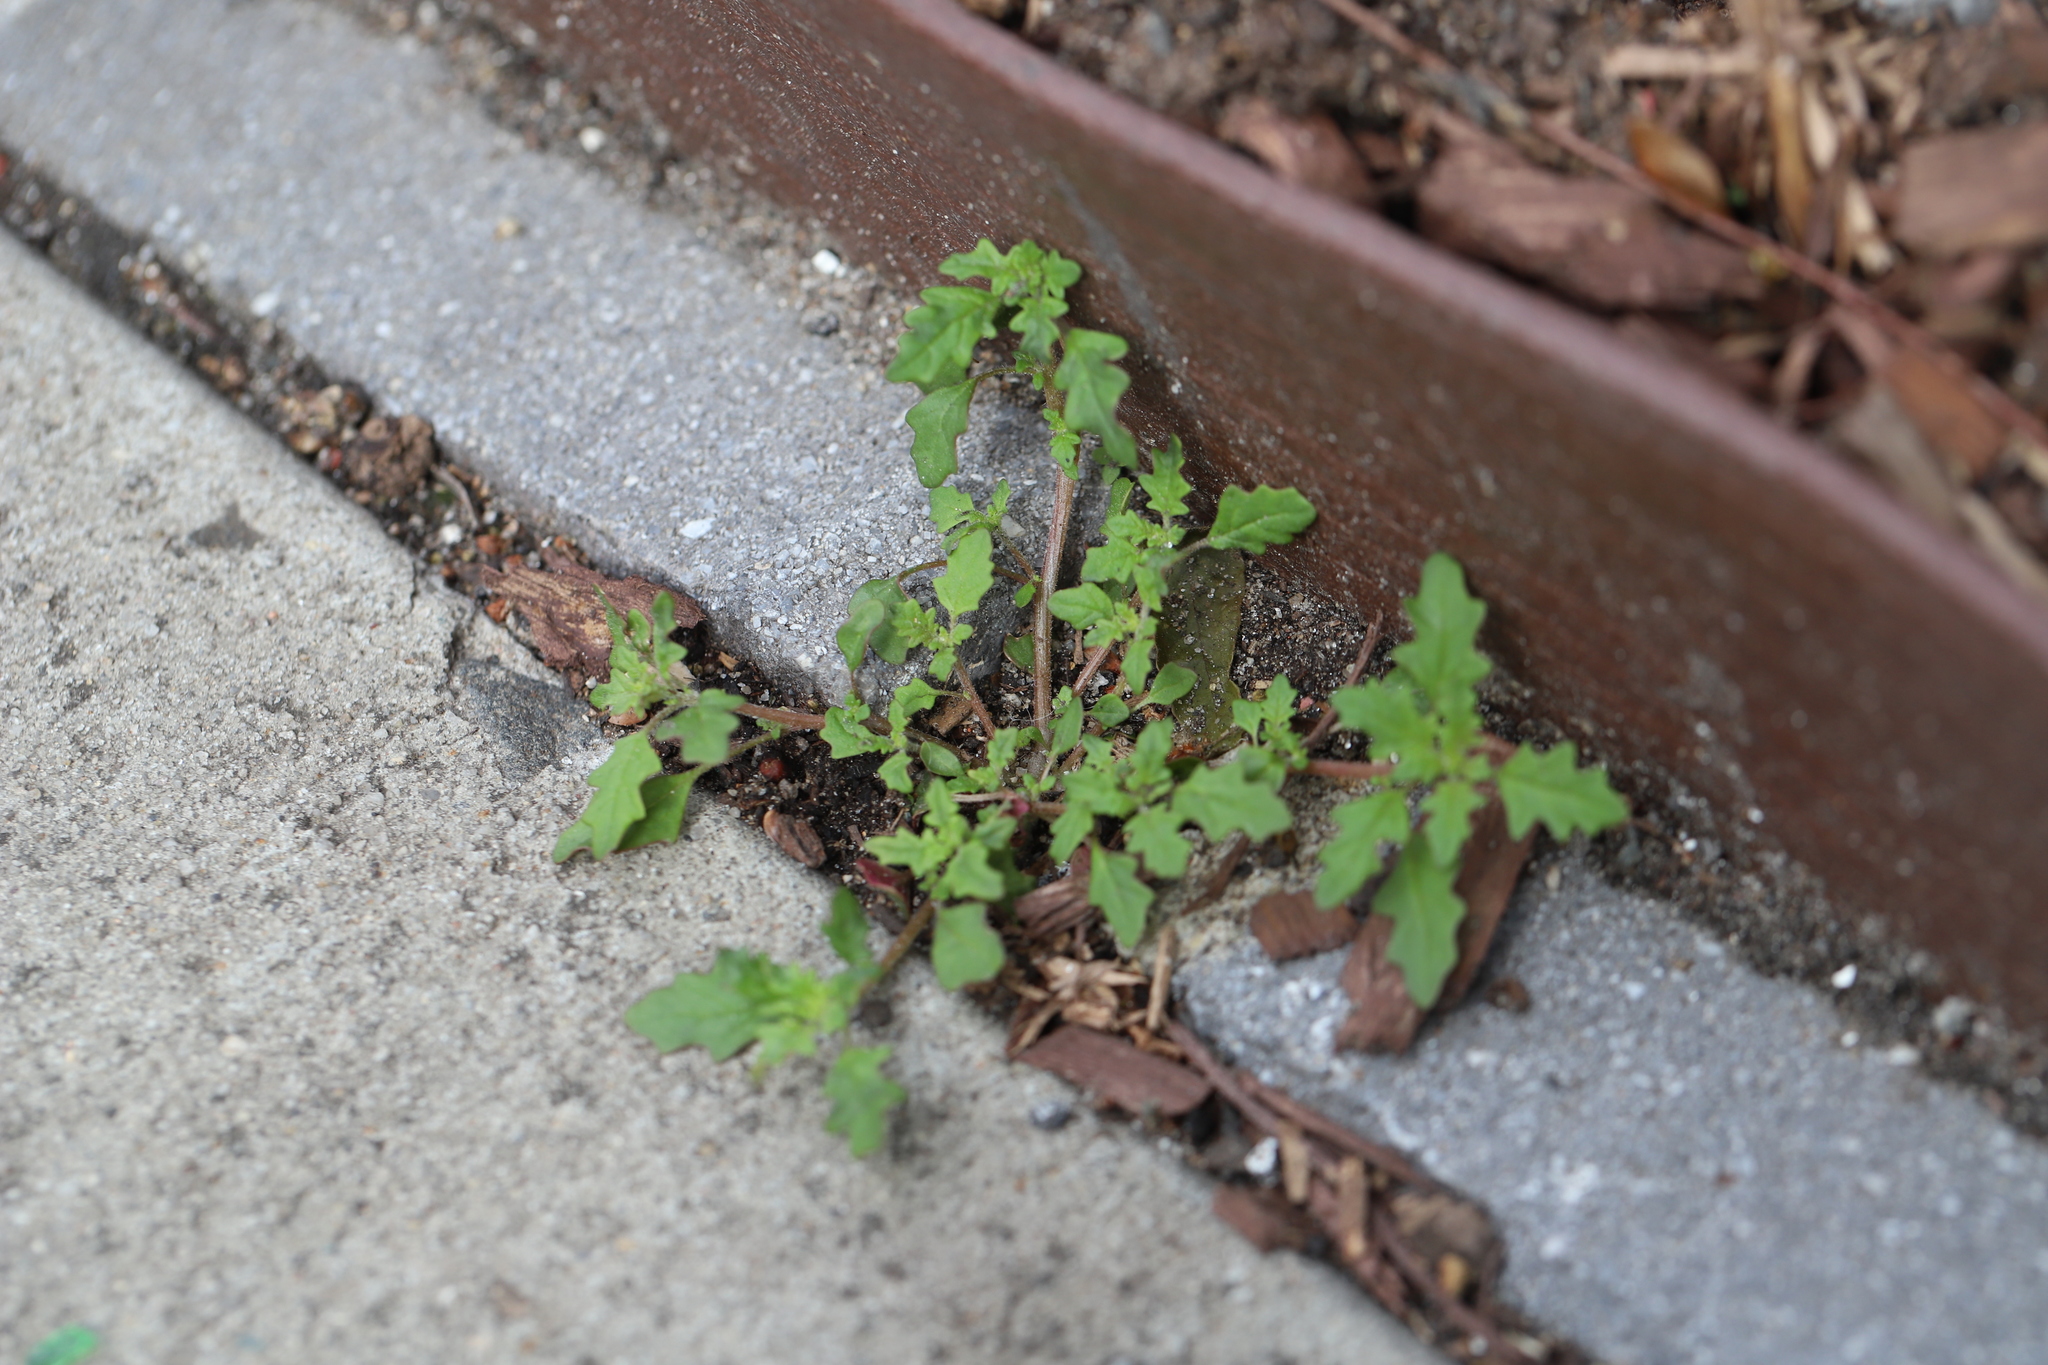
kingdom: Plantae
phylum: Tracheophyta
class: Magnoliopsida
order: Caryophyllales
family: Amaranthaceae
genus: Dysphania
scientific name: Dysphania pumilio
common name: Clammy goosefoot
